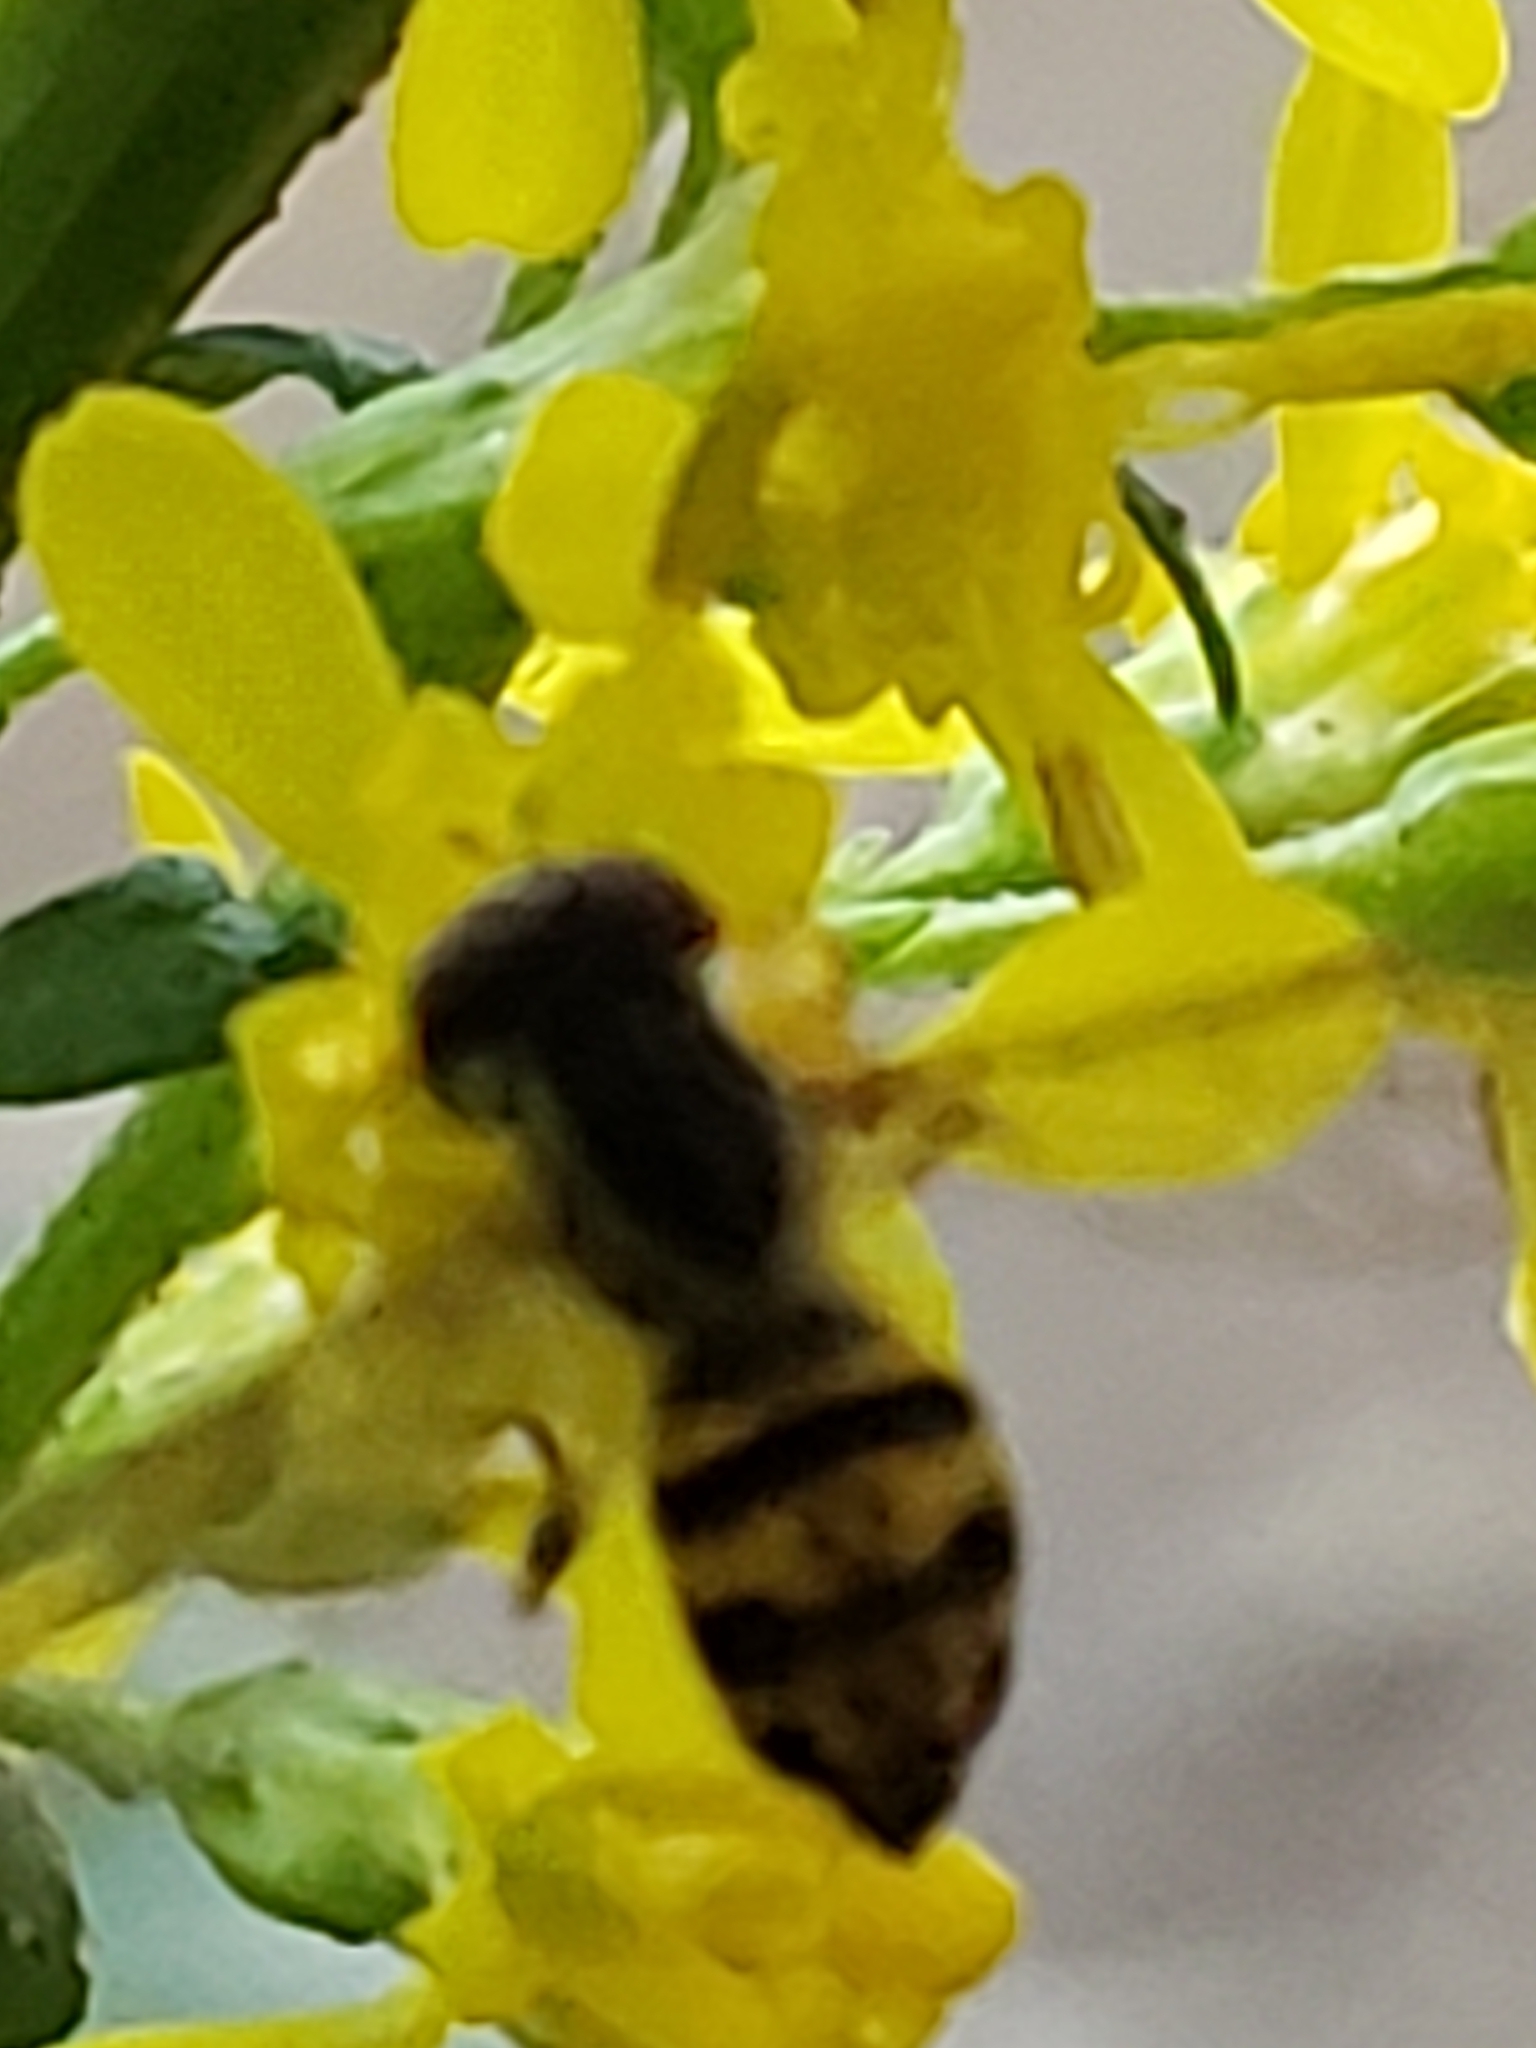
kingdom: Animalia
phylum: Arthropoda
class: Insecta
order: Diptera
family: Syrphidae
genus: Toxomerus
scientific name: Toxomerus geminatus
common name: Eastern calligrapher
